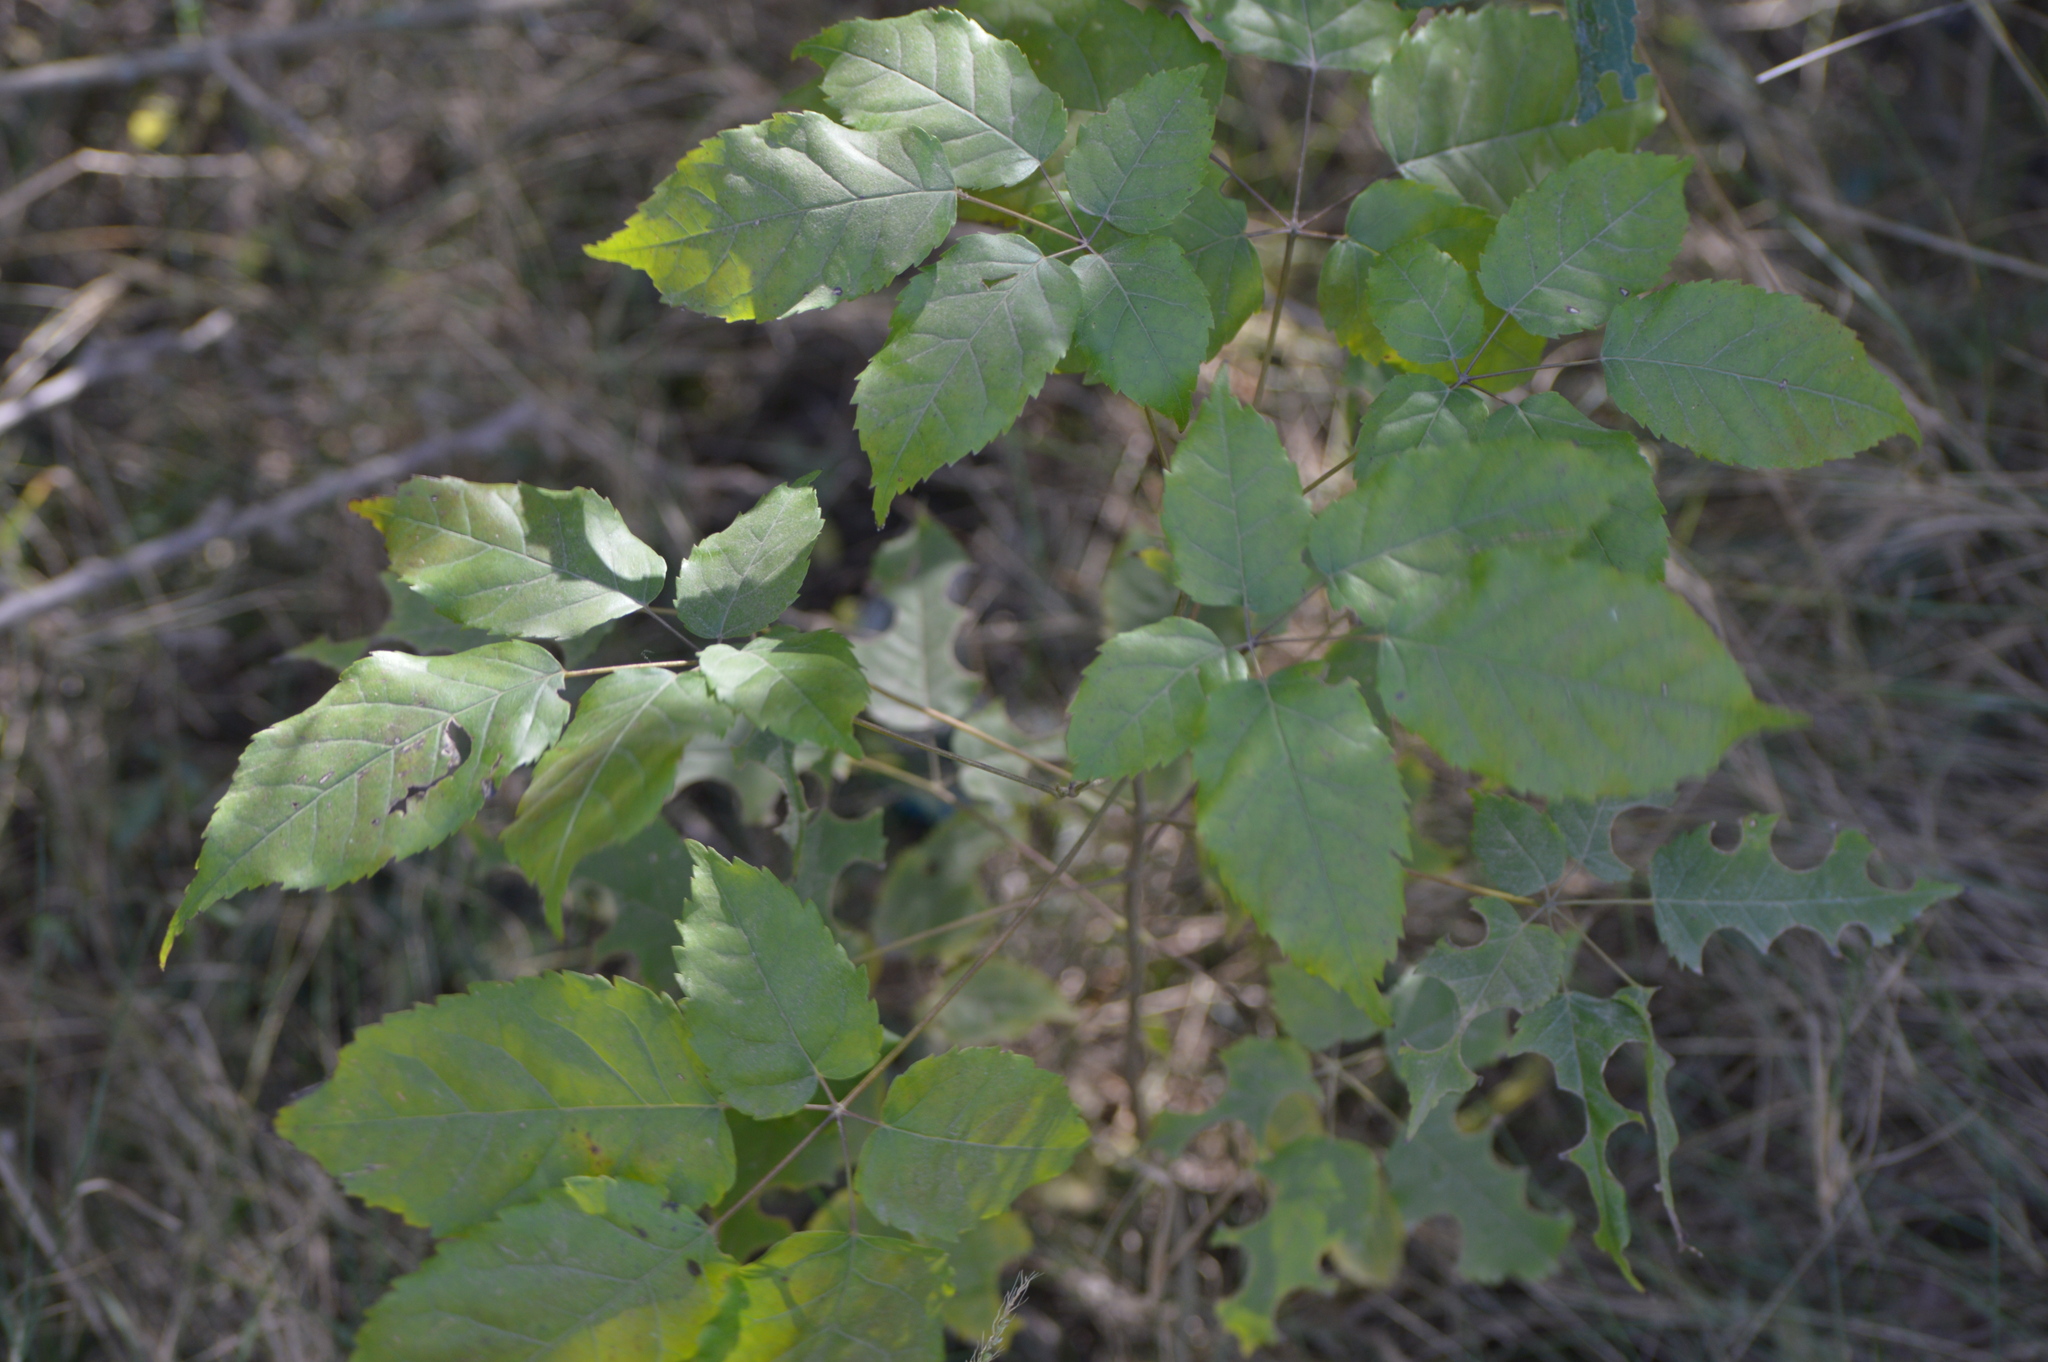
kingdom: Plantae
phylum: Tracheophyta
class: Magnoliopsida
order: Lamiales
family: Bignoniaceae
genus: Handroanthus
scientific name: Handroanthus impetiginosum
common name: Pink trumpet tree
